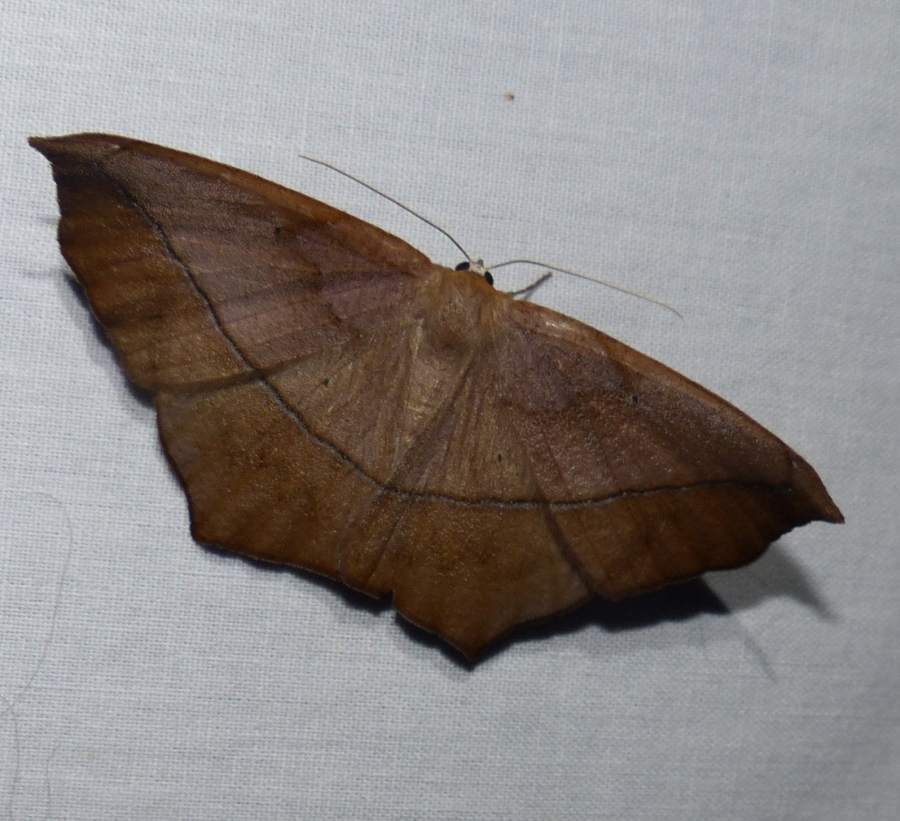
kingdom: Animalia
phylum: Arthropoda
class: Insecta
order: Lepidoptera
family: Geometridae
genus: Prochoerodes
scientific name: Prochoerodes lineola
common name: Large maple spanworm
